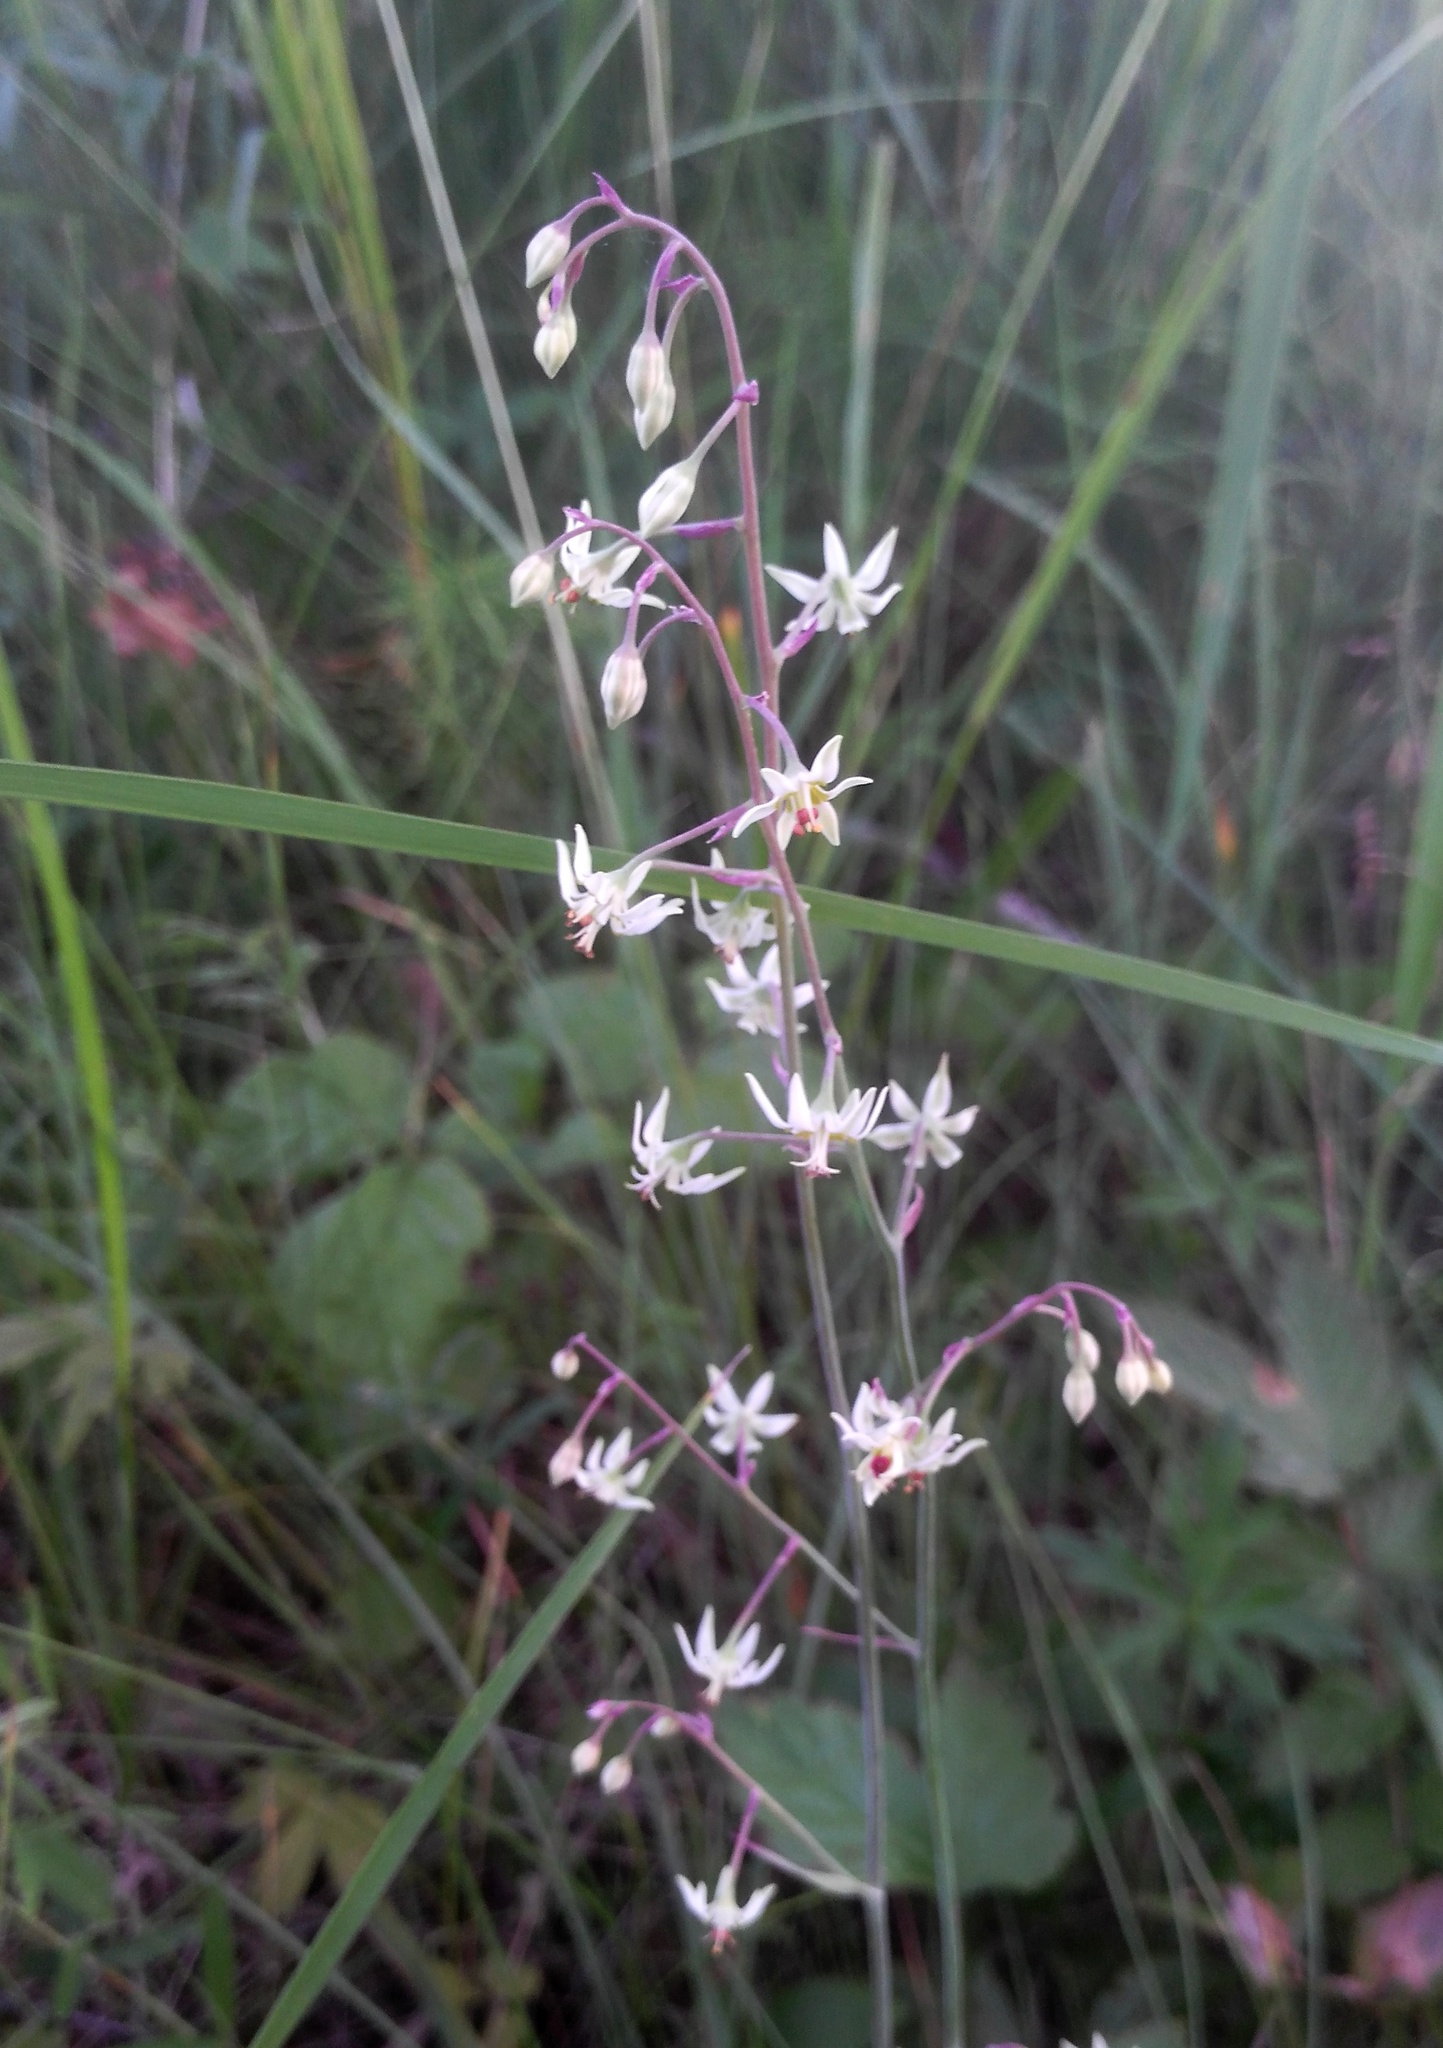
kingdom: Plantae
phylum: Tracheophyta
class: Liliopsida
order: Liliales
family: Melanthiaceae
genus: Anticlea
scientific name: Anticlea sibirica
